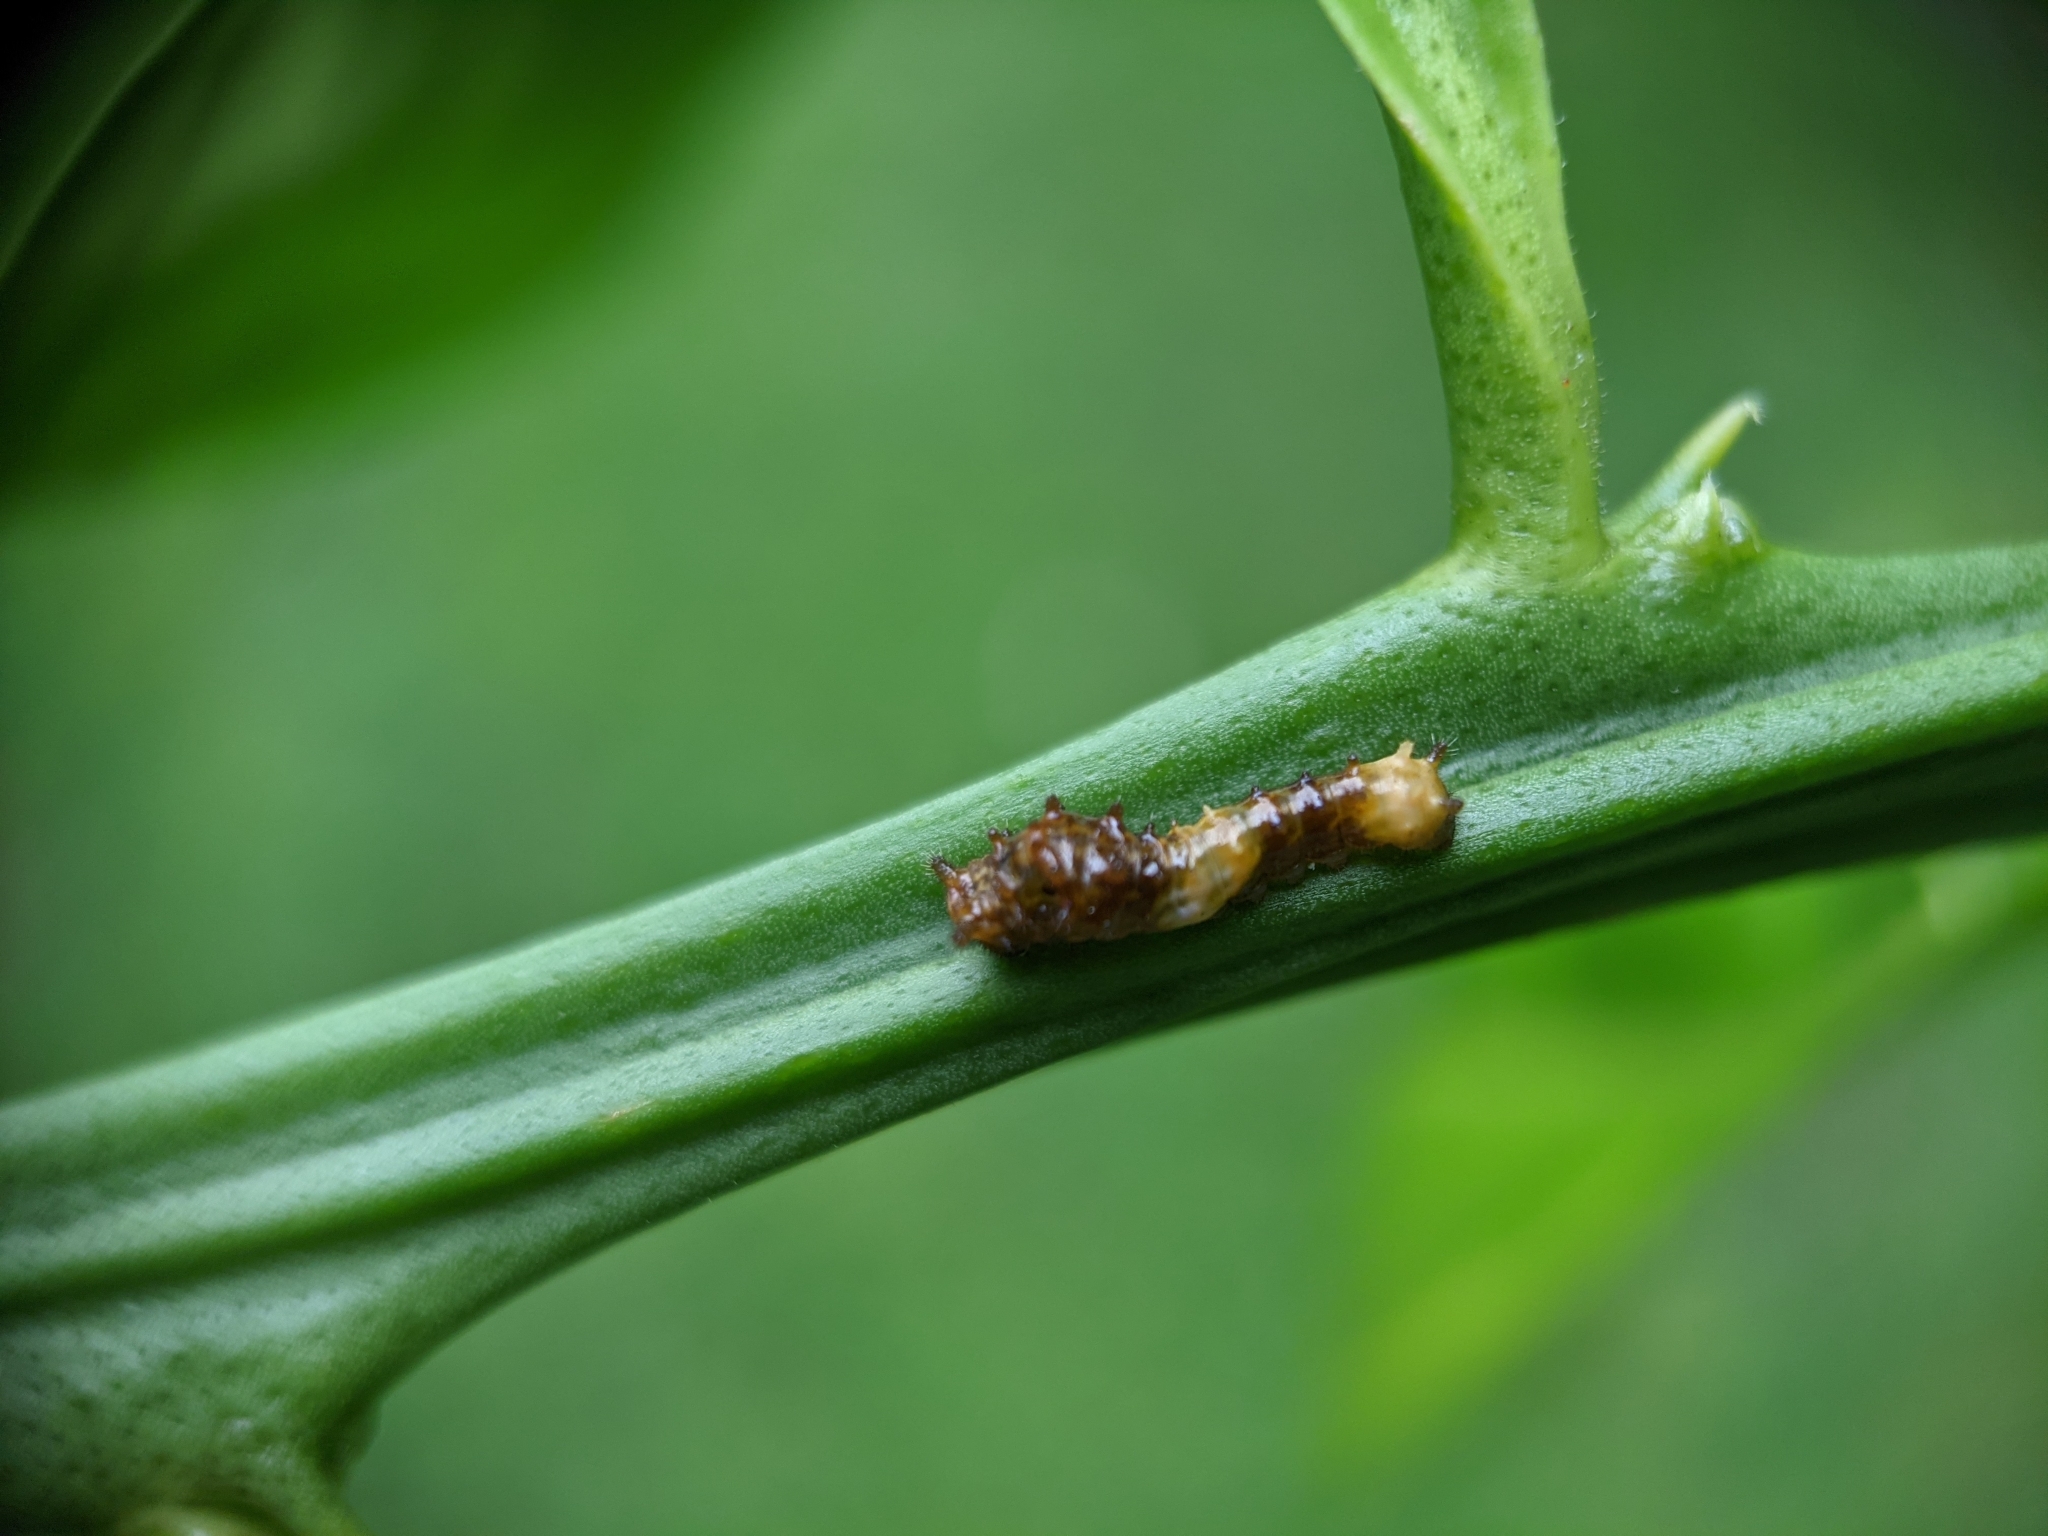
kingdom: Animalia
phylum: Arthropoda
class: Insecta
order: Lepidoptera
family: Papilionidae
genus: Papilio
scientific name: Papilio cresphontes
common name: Giant swallowtail
